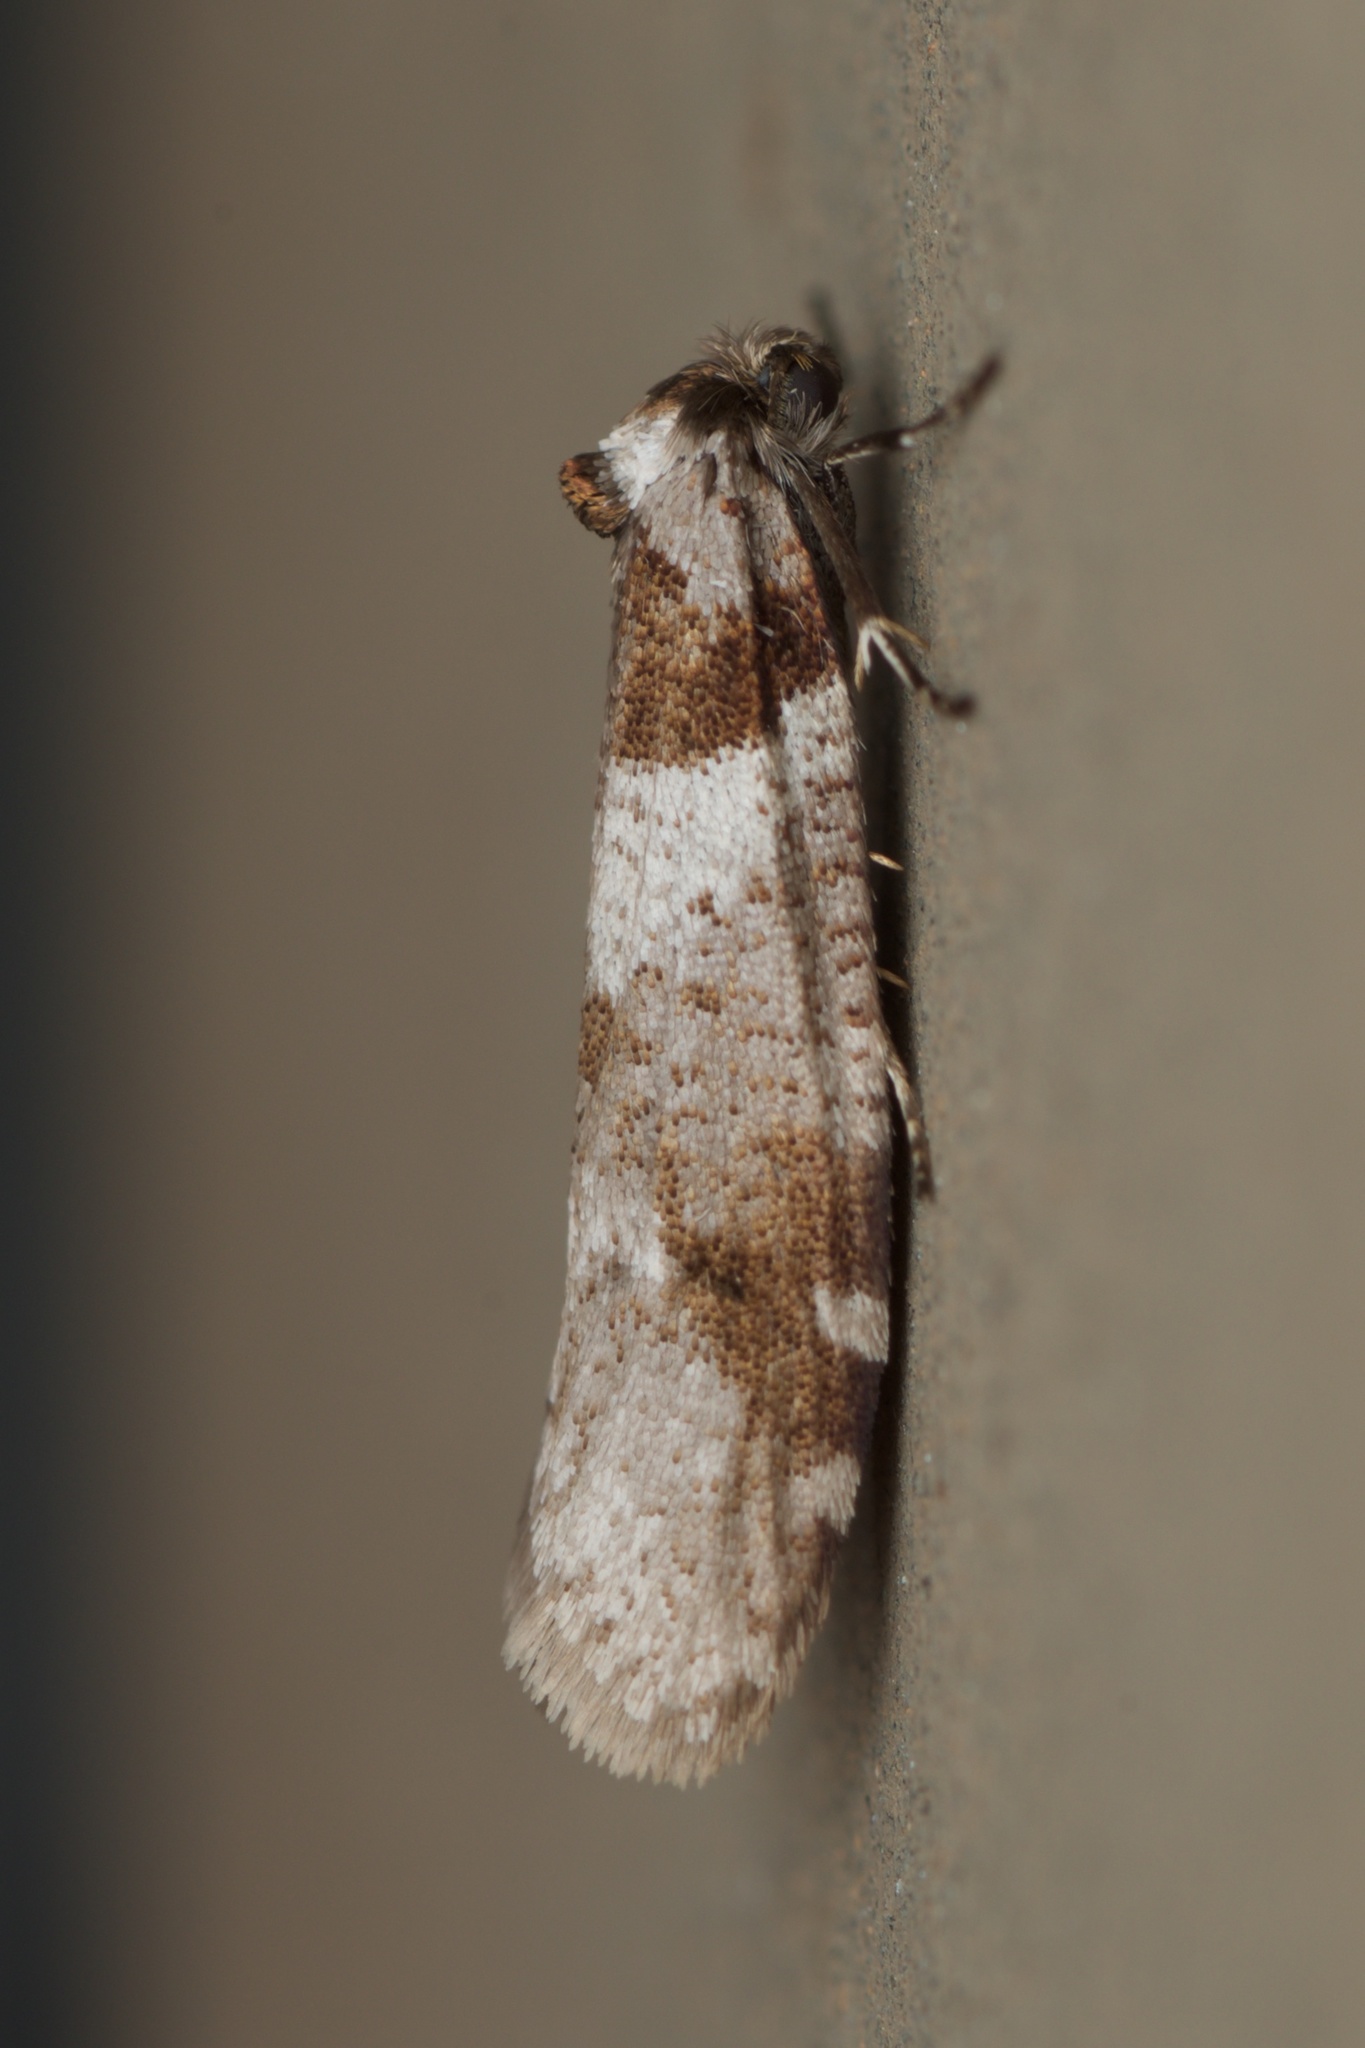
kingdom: Animalia
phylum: Arthropoda
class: Insecta
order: Lepidoptera
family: Psychidae
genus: Lepidoscia
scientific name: Lepidoscia heliochares
